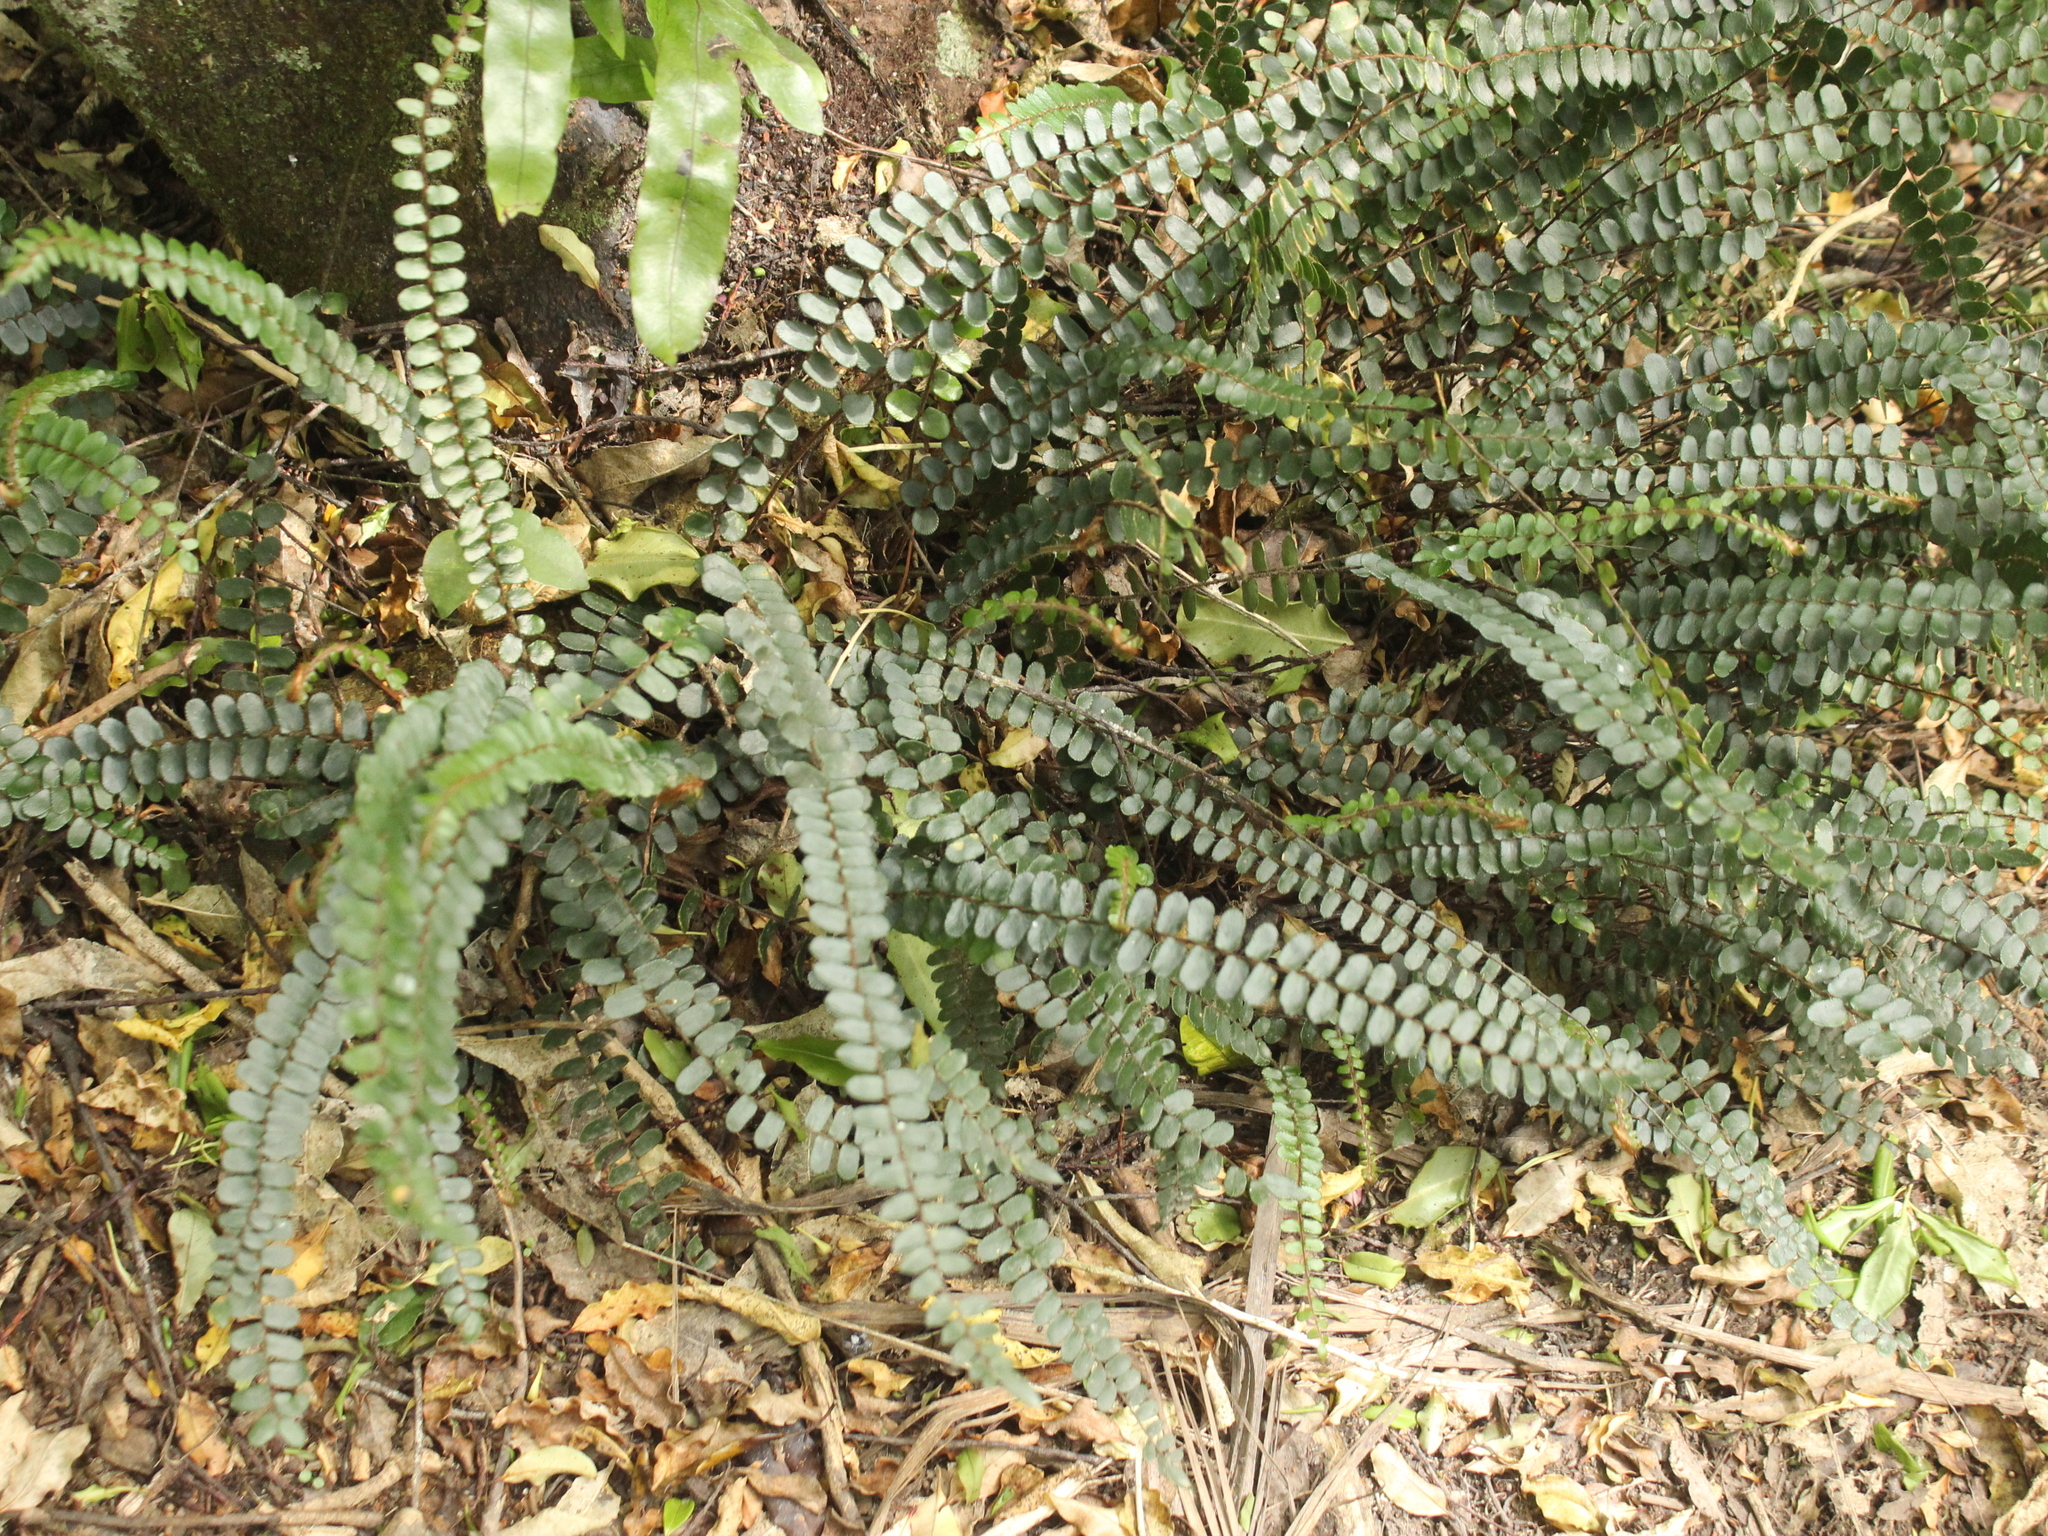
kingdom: Plantae
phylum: Tracheophyta
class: Polypodiopsida
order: Polypodiales
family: Pteridaceae
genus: Pellaea
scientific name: Pellaea rotundifolia
